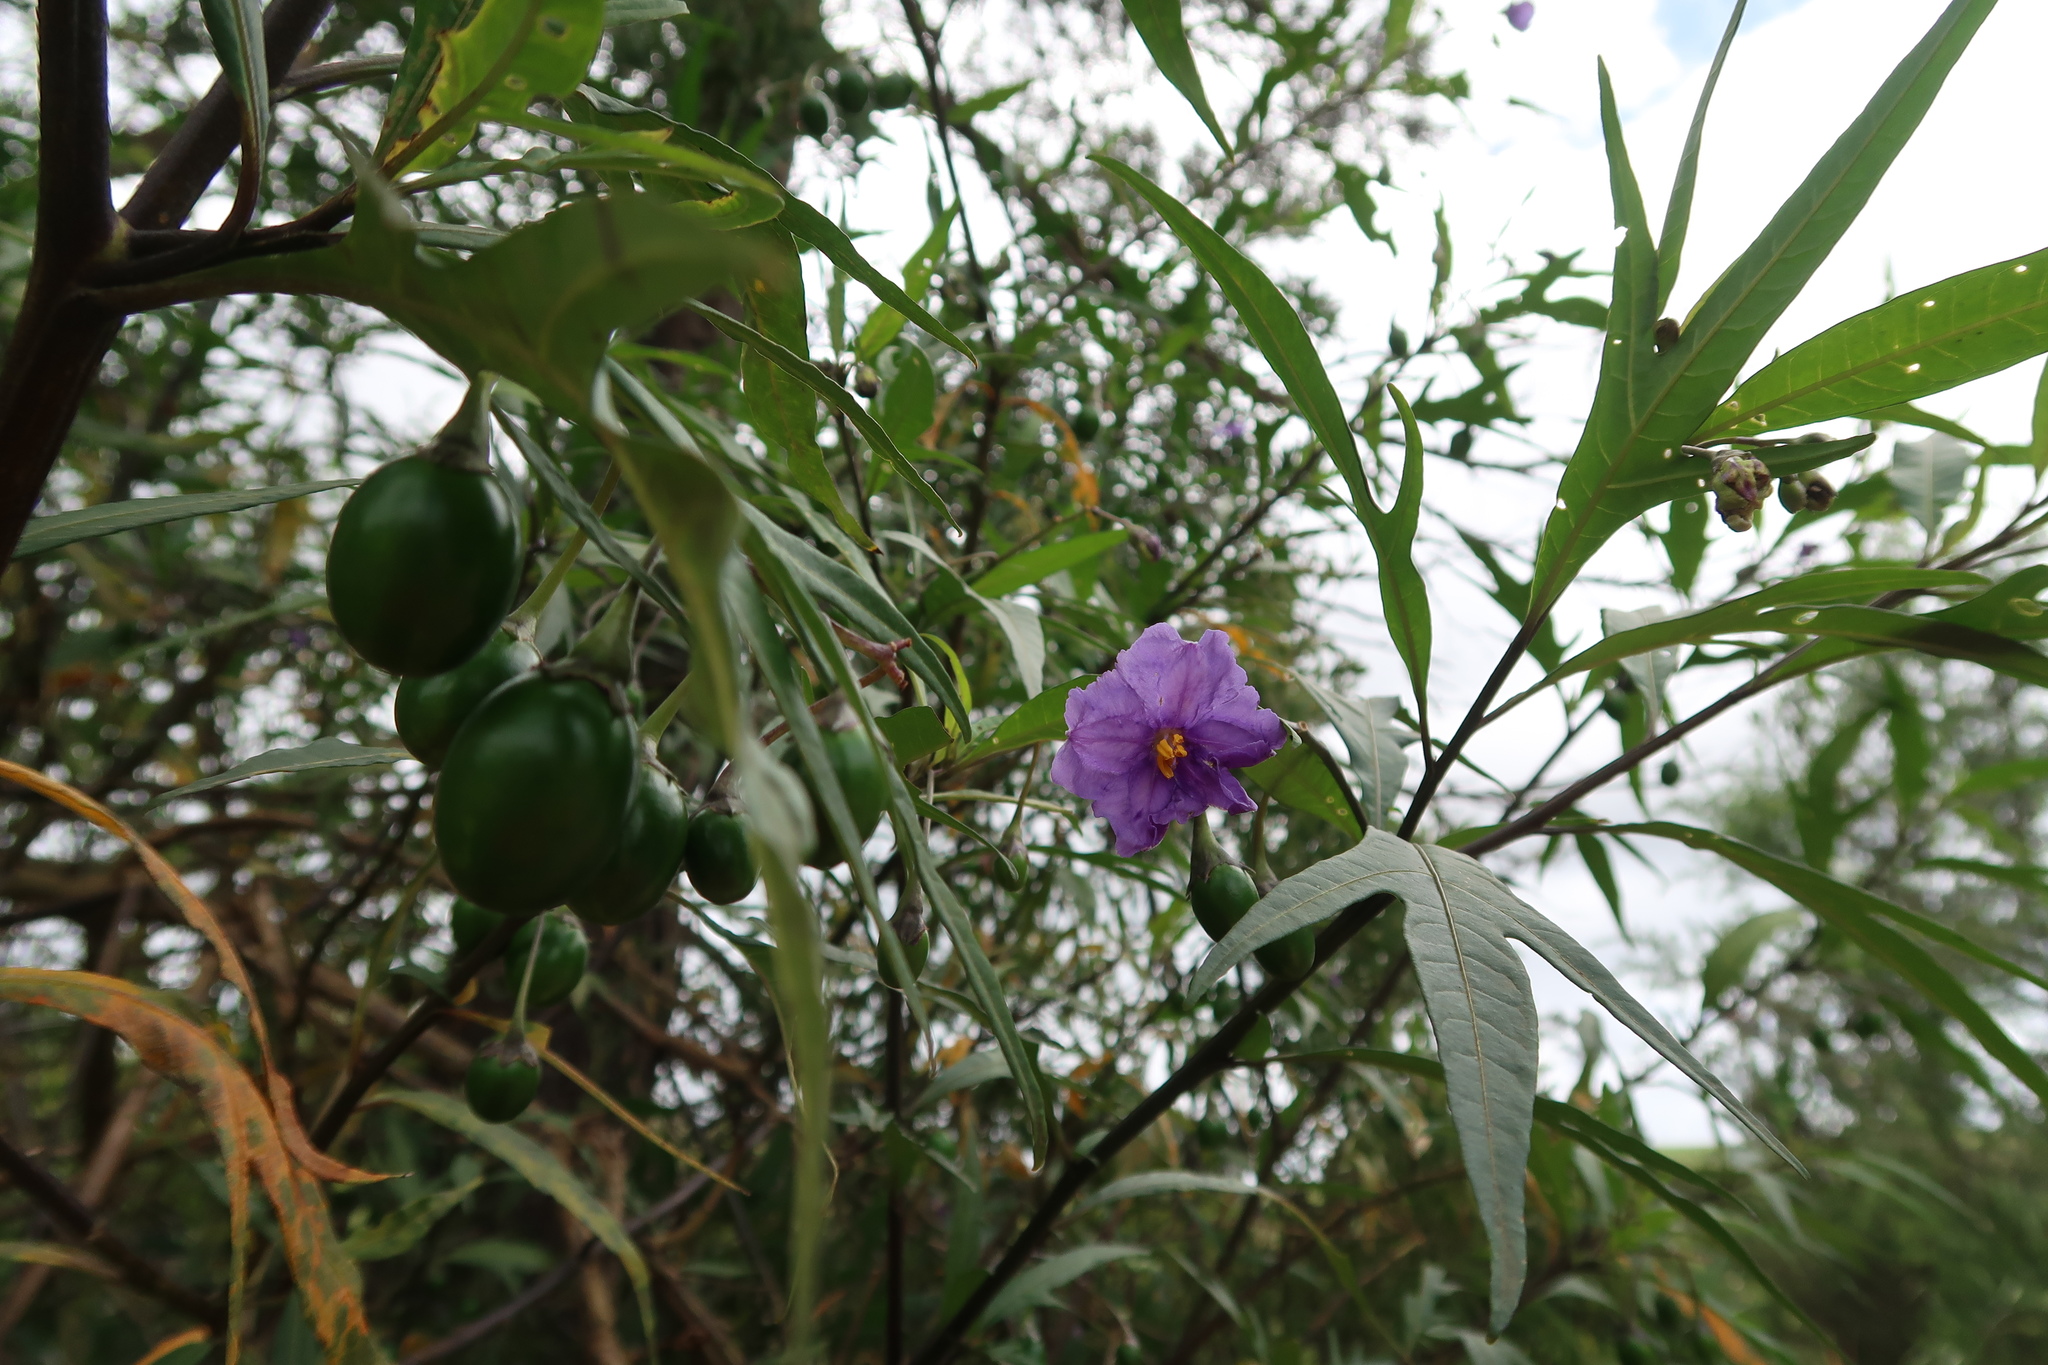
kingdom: Plantae
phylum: Tracheophyta
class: Magnoliopsida
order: Solanales
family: Solanaceae
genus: Solanum
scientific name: Solanum laciniatum
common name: Kangaroo-apple
